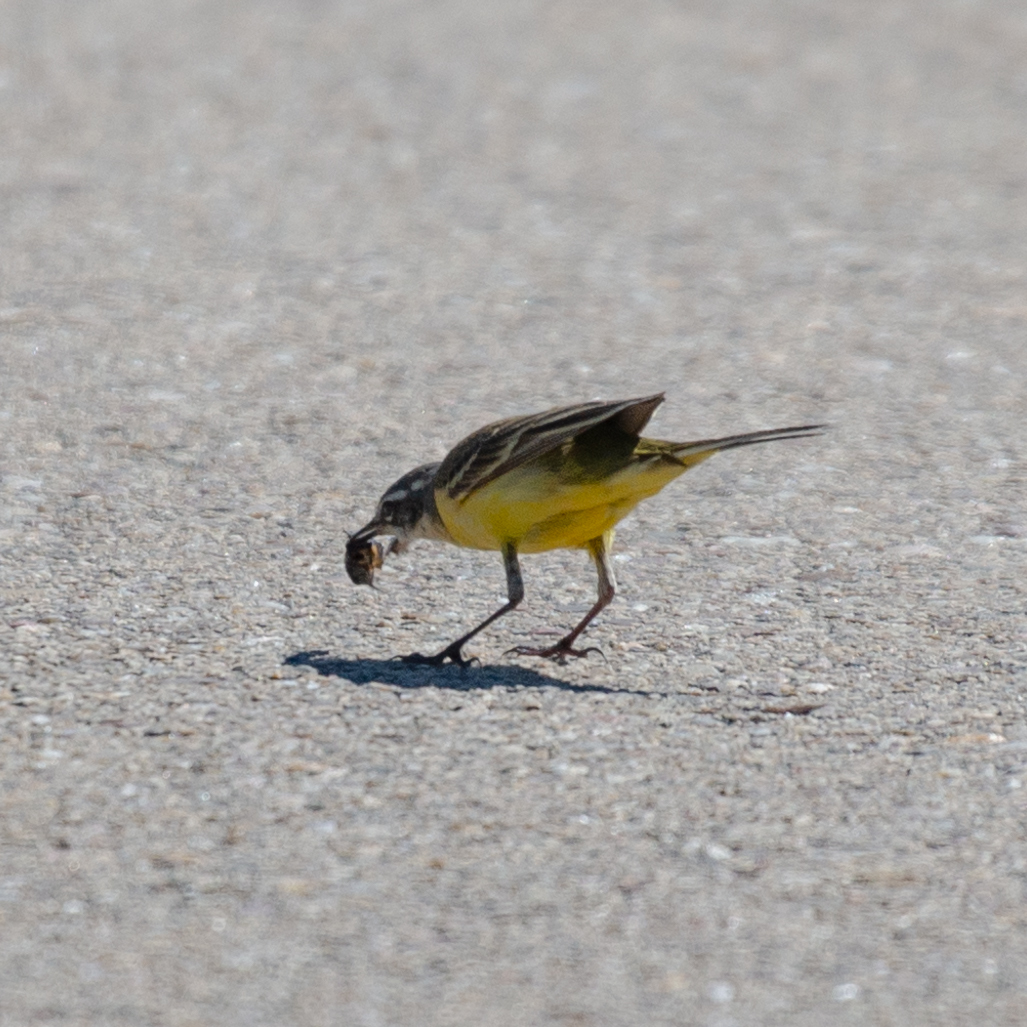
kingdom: Animalia
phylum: Chordata
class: Aves
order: Passeriformes
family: Motacillidae
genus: Motacilla
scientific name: Motacilla flava
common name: Western yellow wagtail
